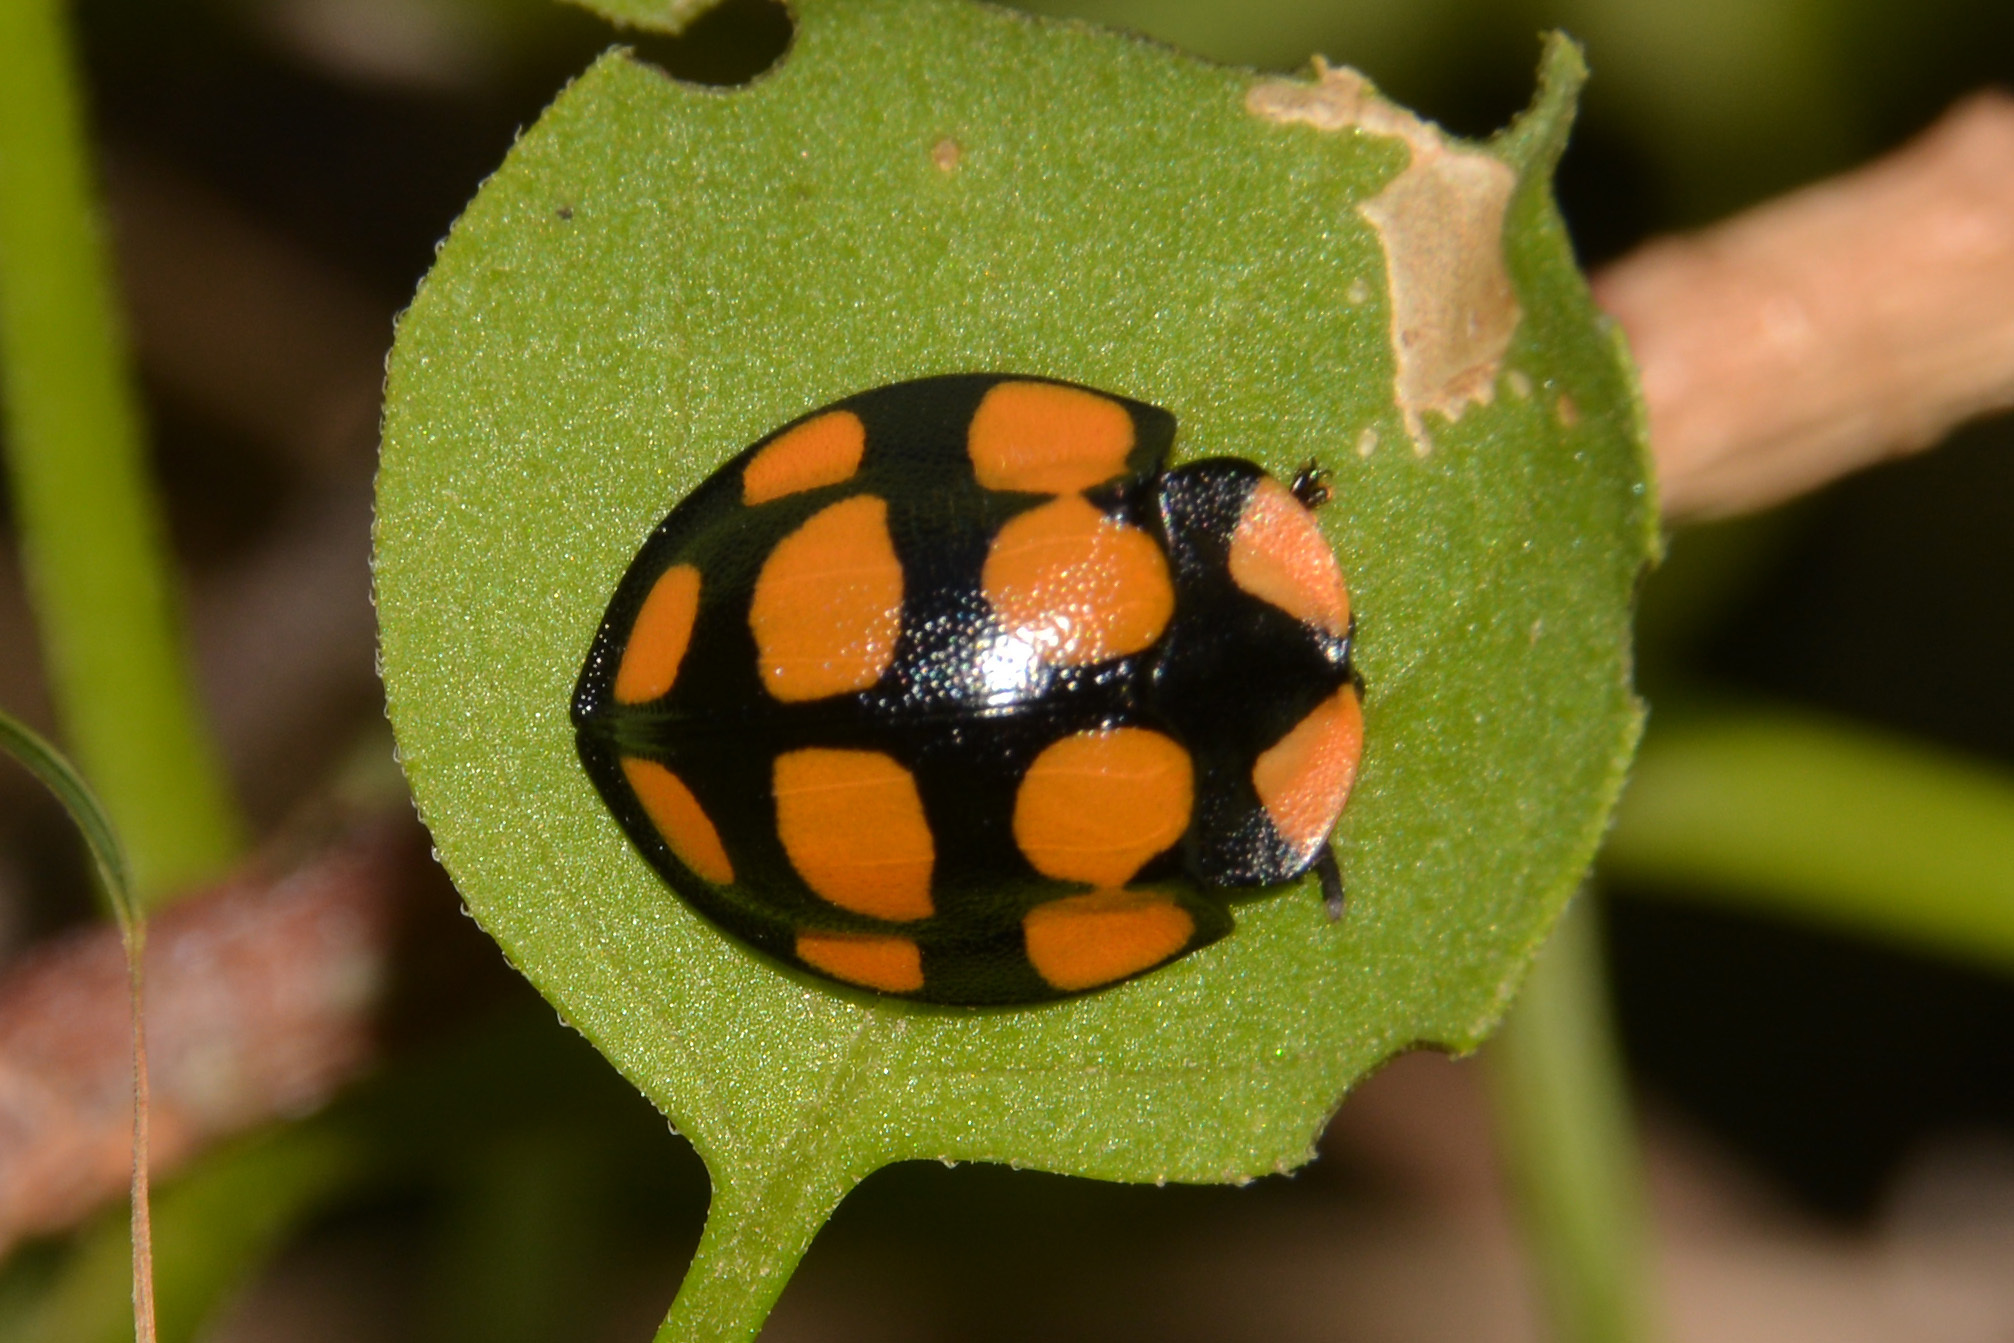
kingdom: Animalia
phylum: Arthropoda
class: Insecta
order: Coleoptera
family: Chrysomelidae
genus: Botanochara
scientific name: Botanochara decempustulata
